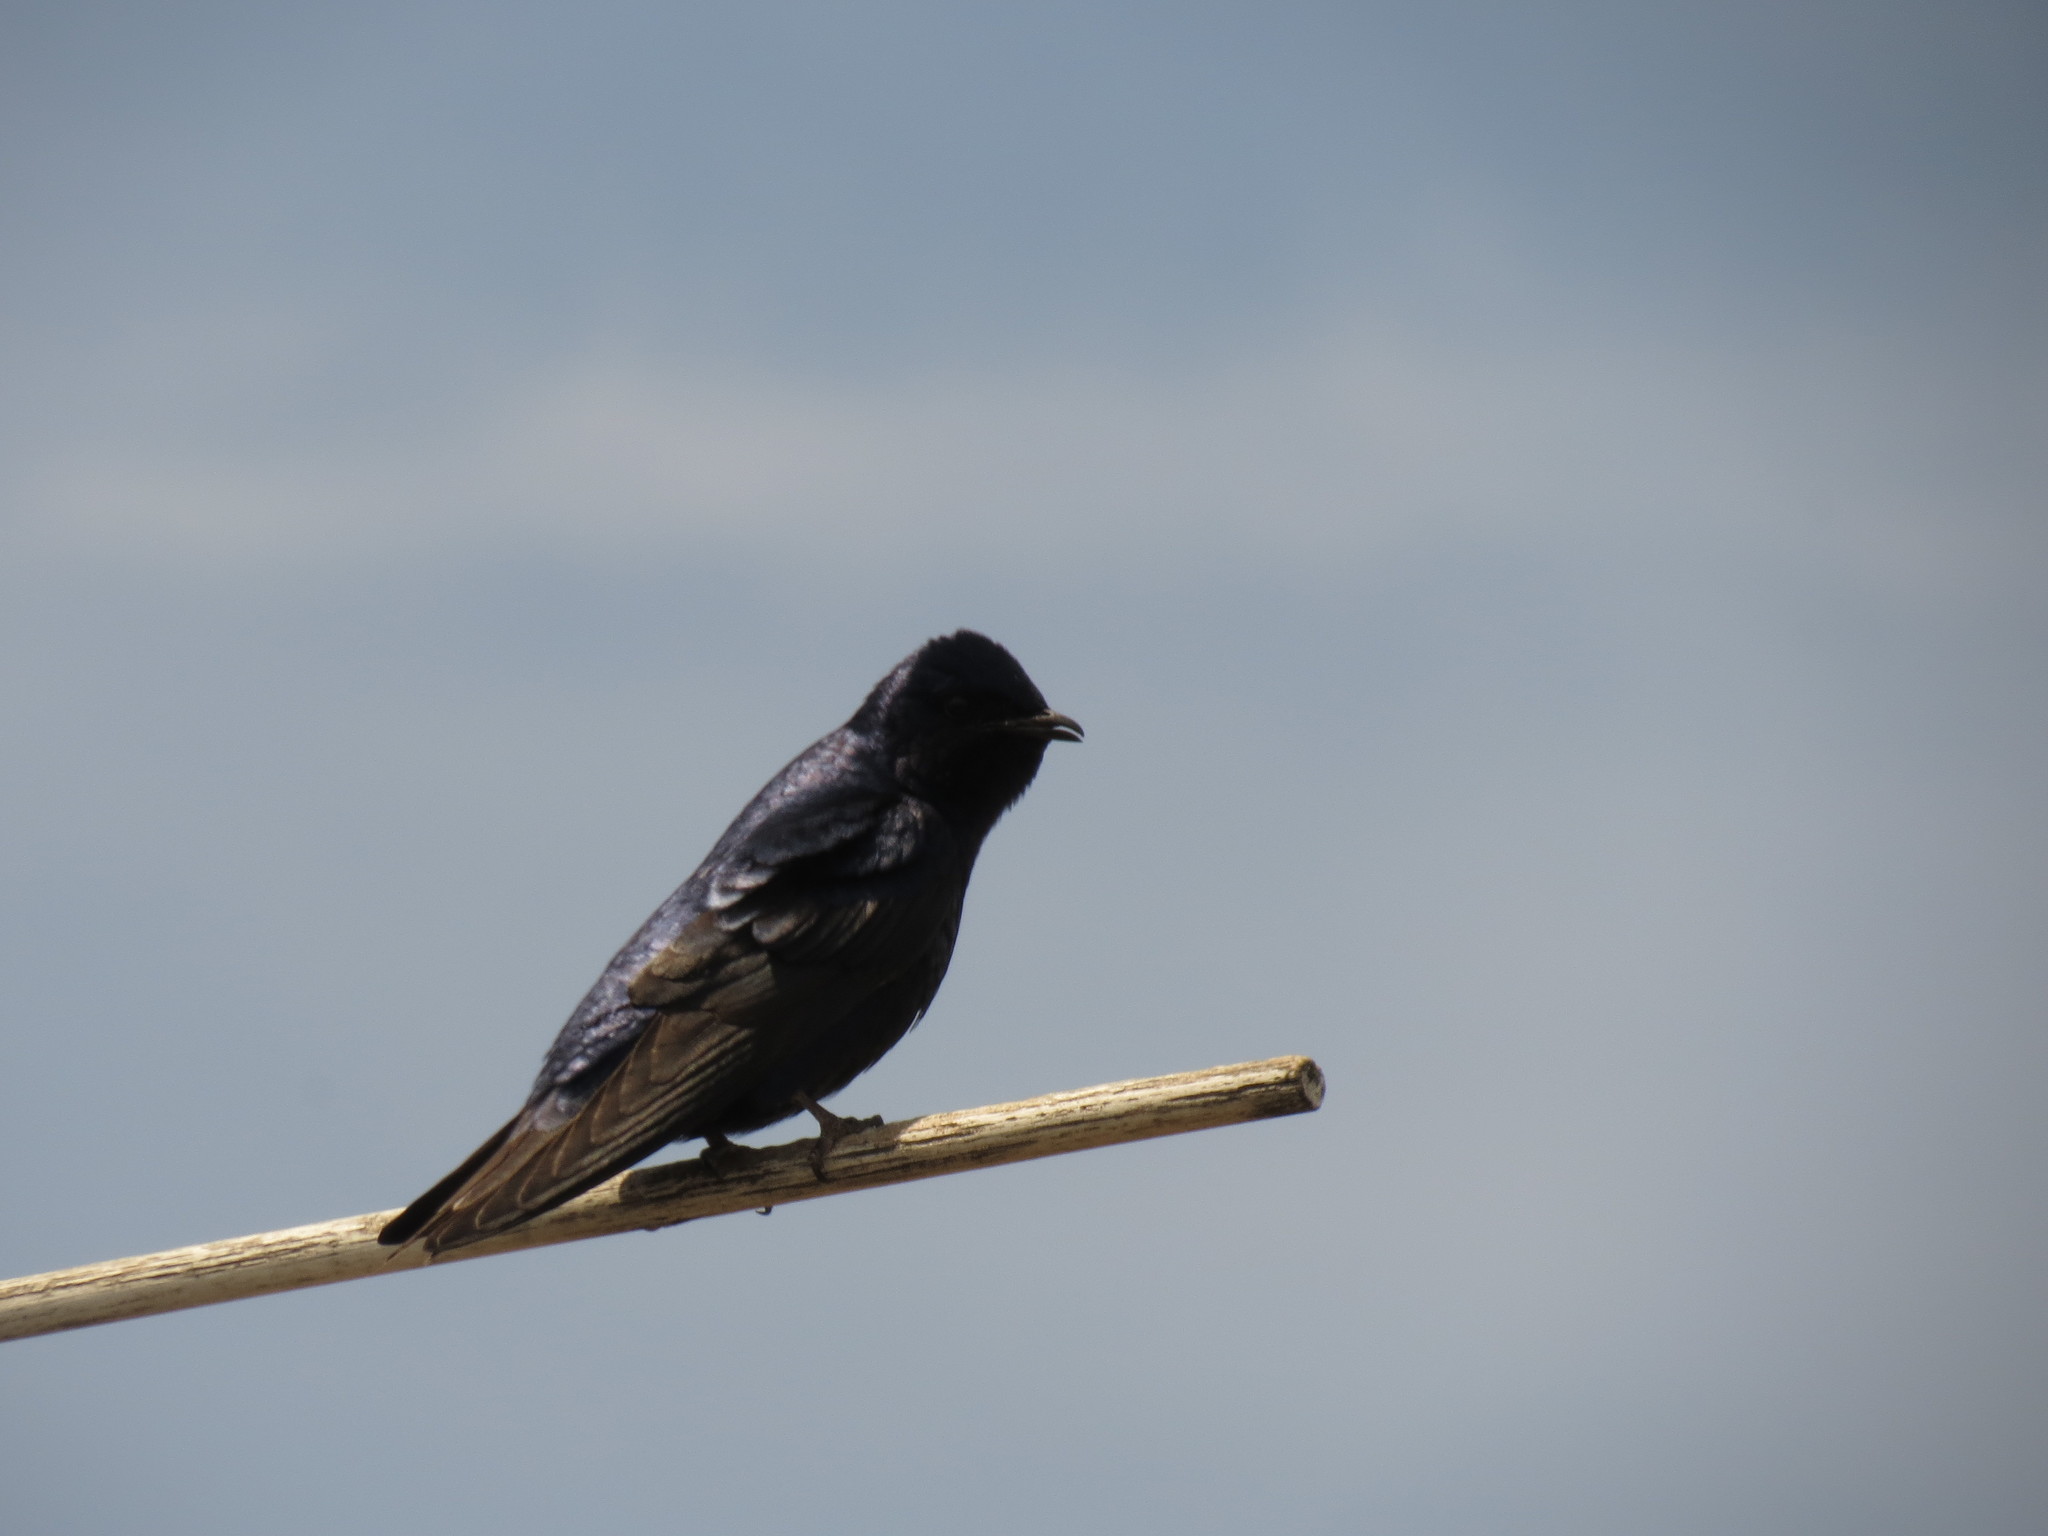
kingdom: Animalia
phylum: Chordata
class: Aves
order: Passeriformes
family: Hirundinidae
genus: Progne
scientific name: Progne subis
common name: Purple martin
